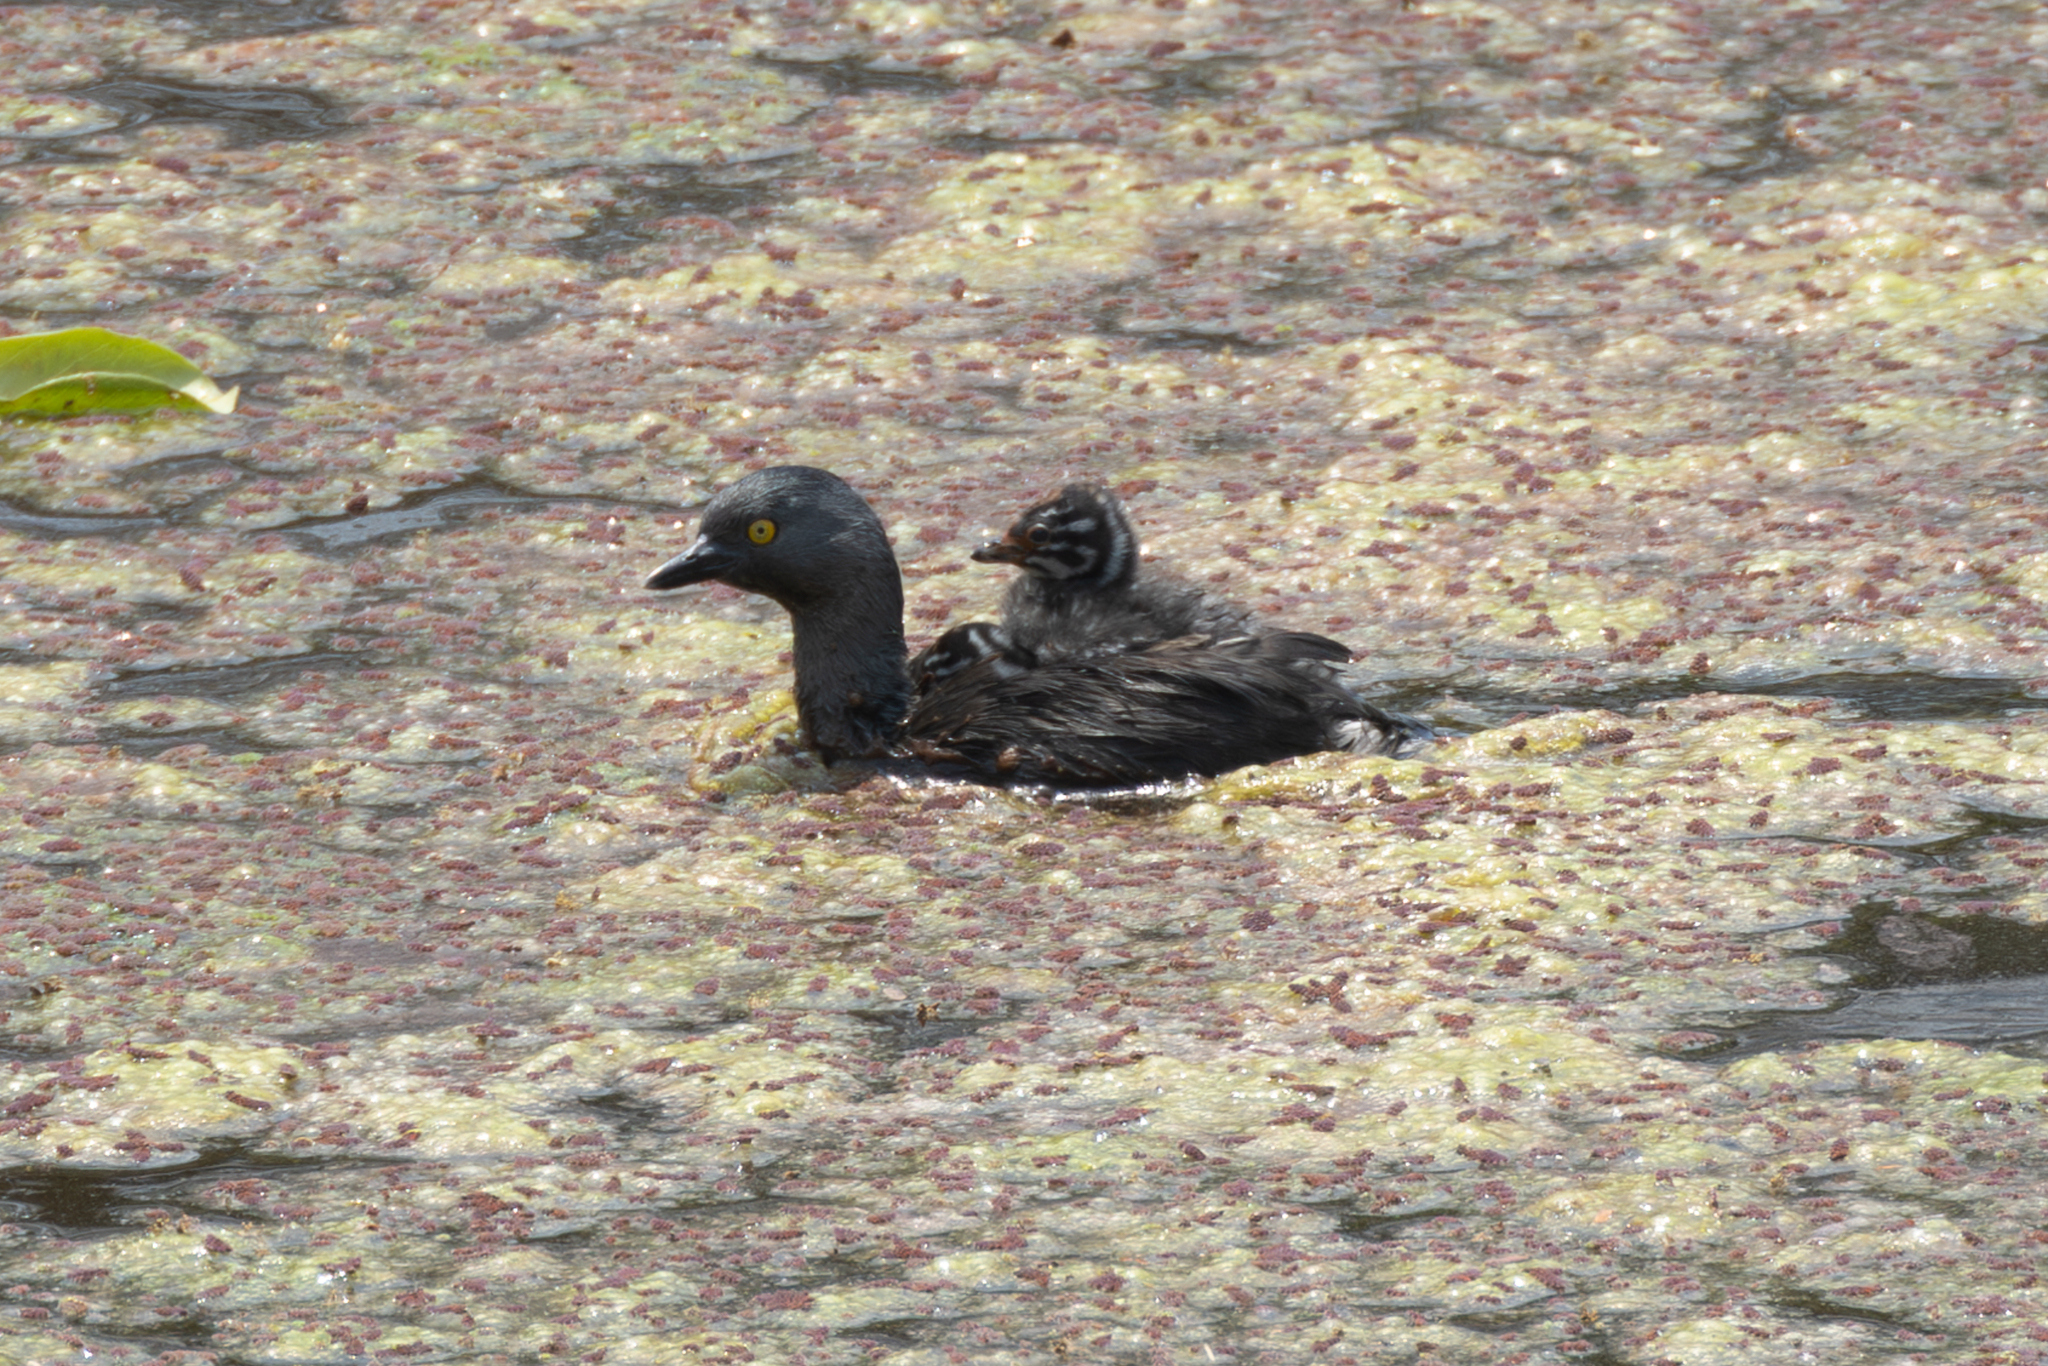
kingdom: Animalia
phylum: Chordata
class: Aves
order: Podicipediformes
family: Podicipedidae
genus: Tachybaptus
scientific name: Tachybaptus dominicus
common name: Least grebe
